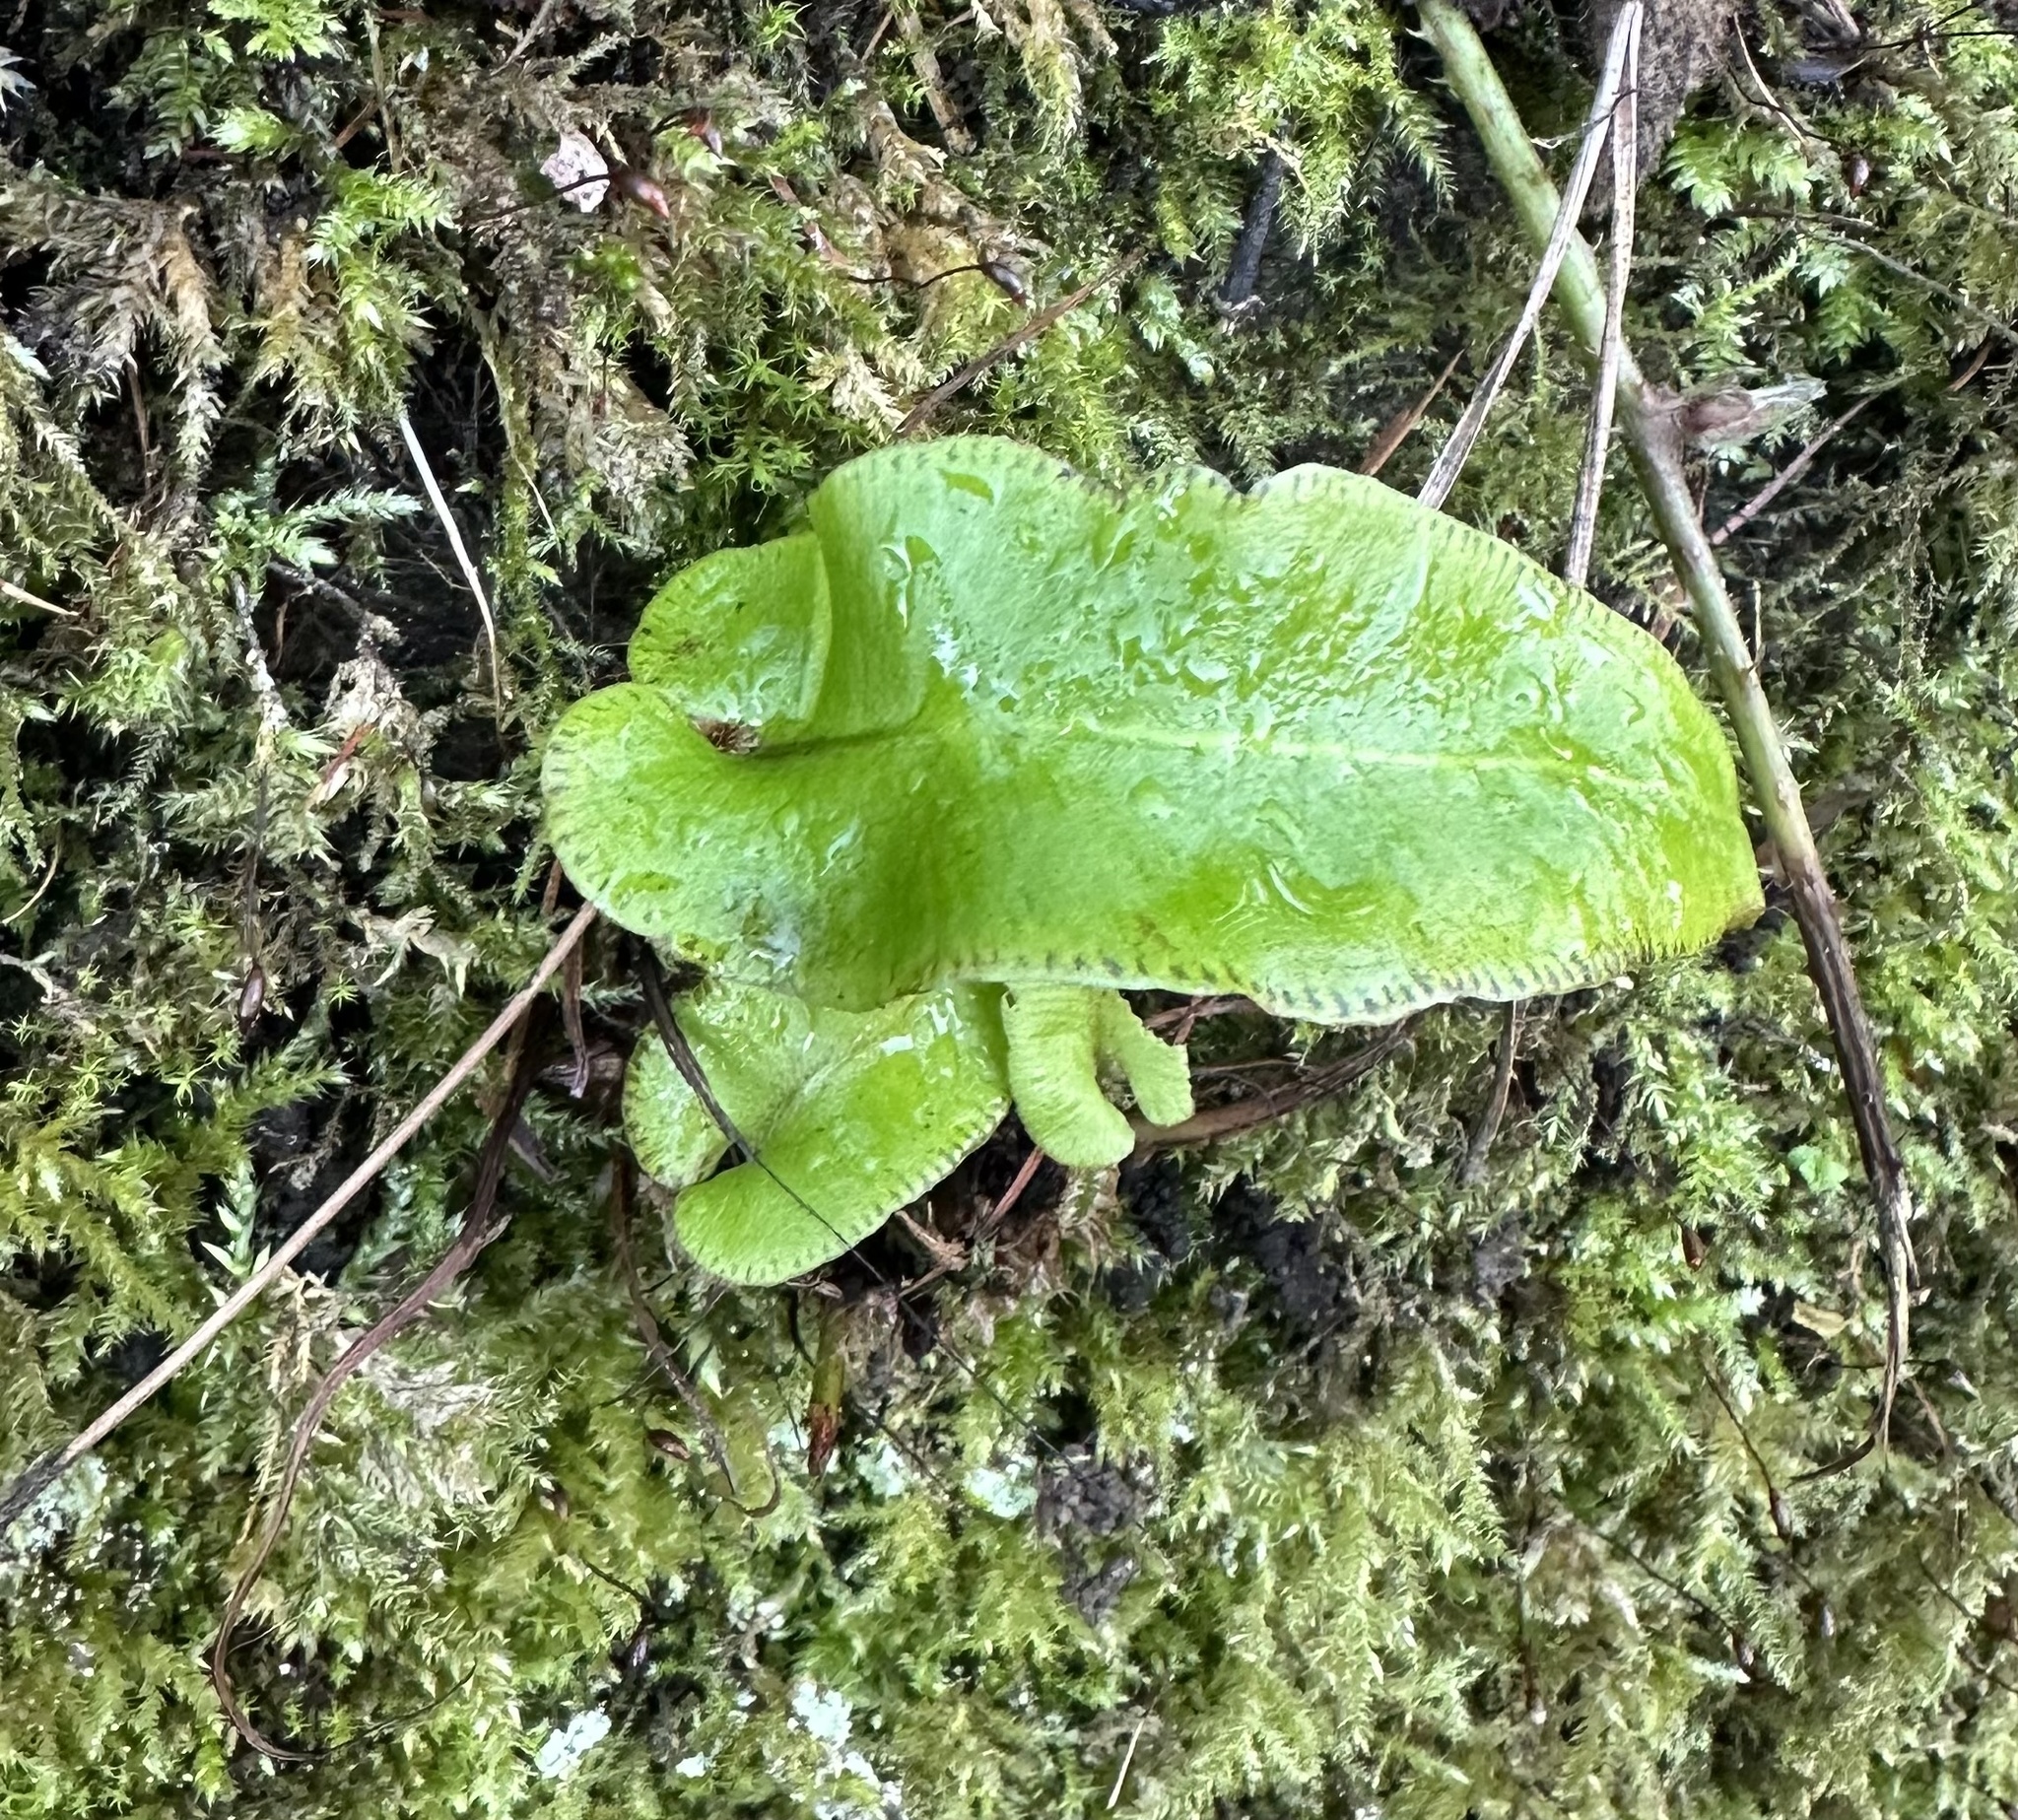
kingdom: Plantae
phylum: Tracheophyta
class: Polypodiopsida
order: Polypodiales
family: Aspleniaceae
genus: Asplenium
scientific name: Asplenium scolopendrium
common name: Hart's-tongue fern
